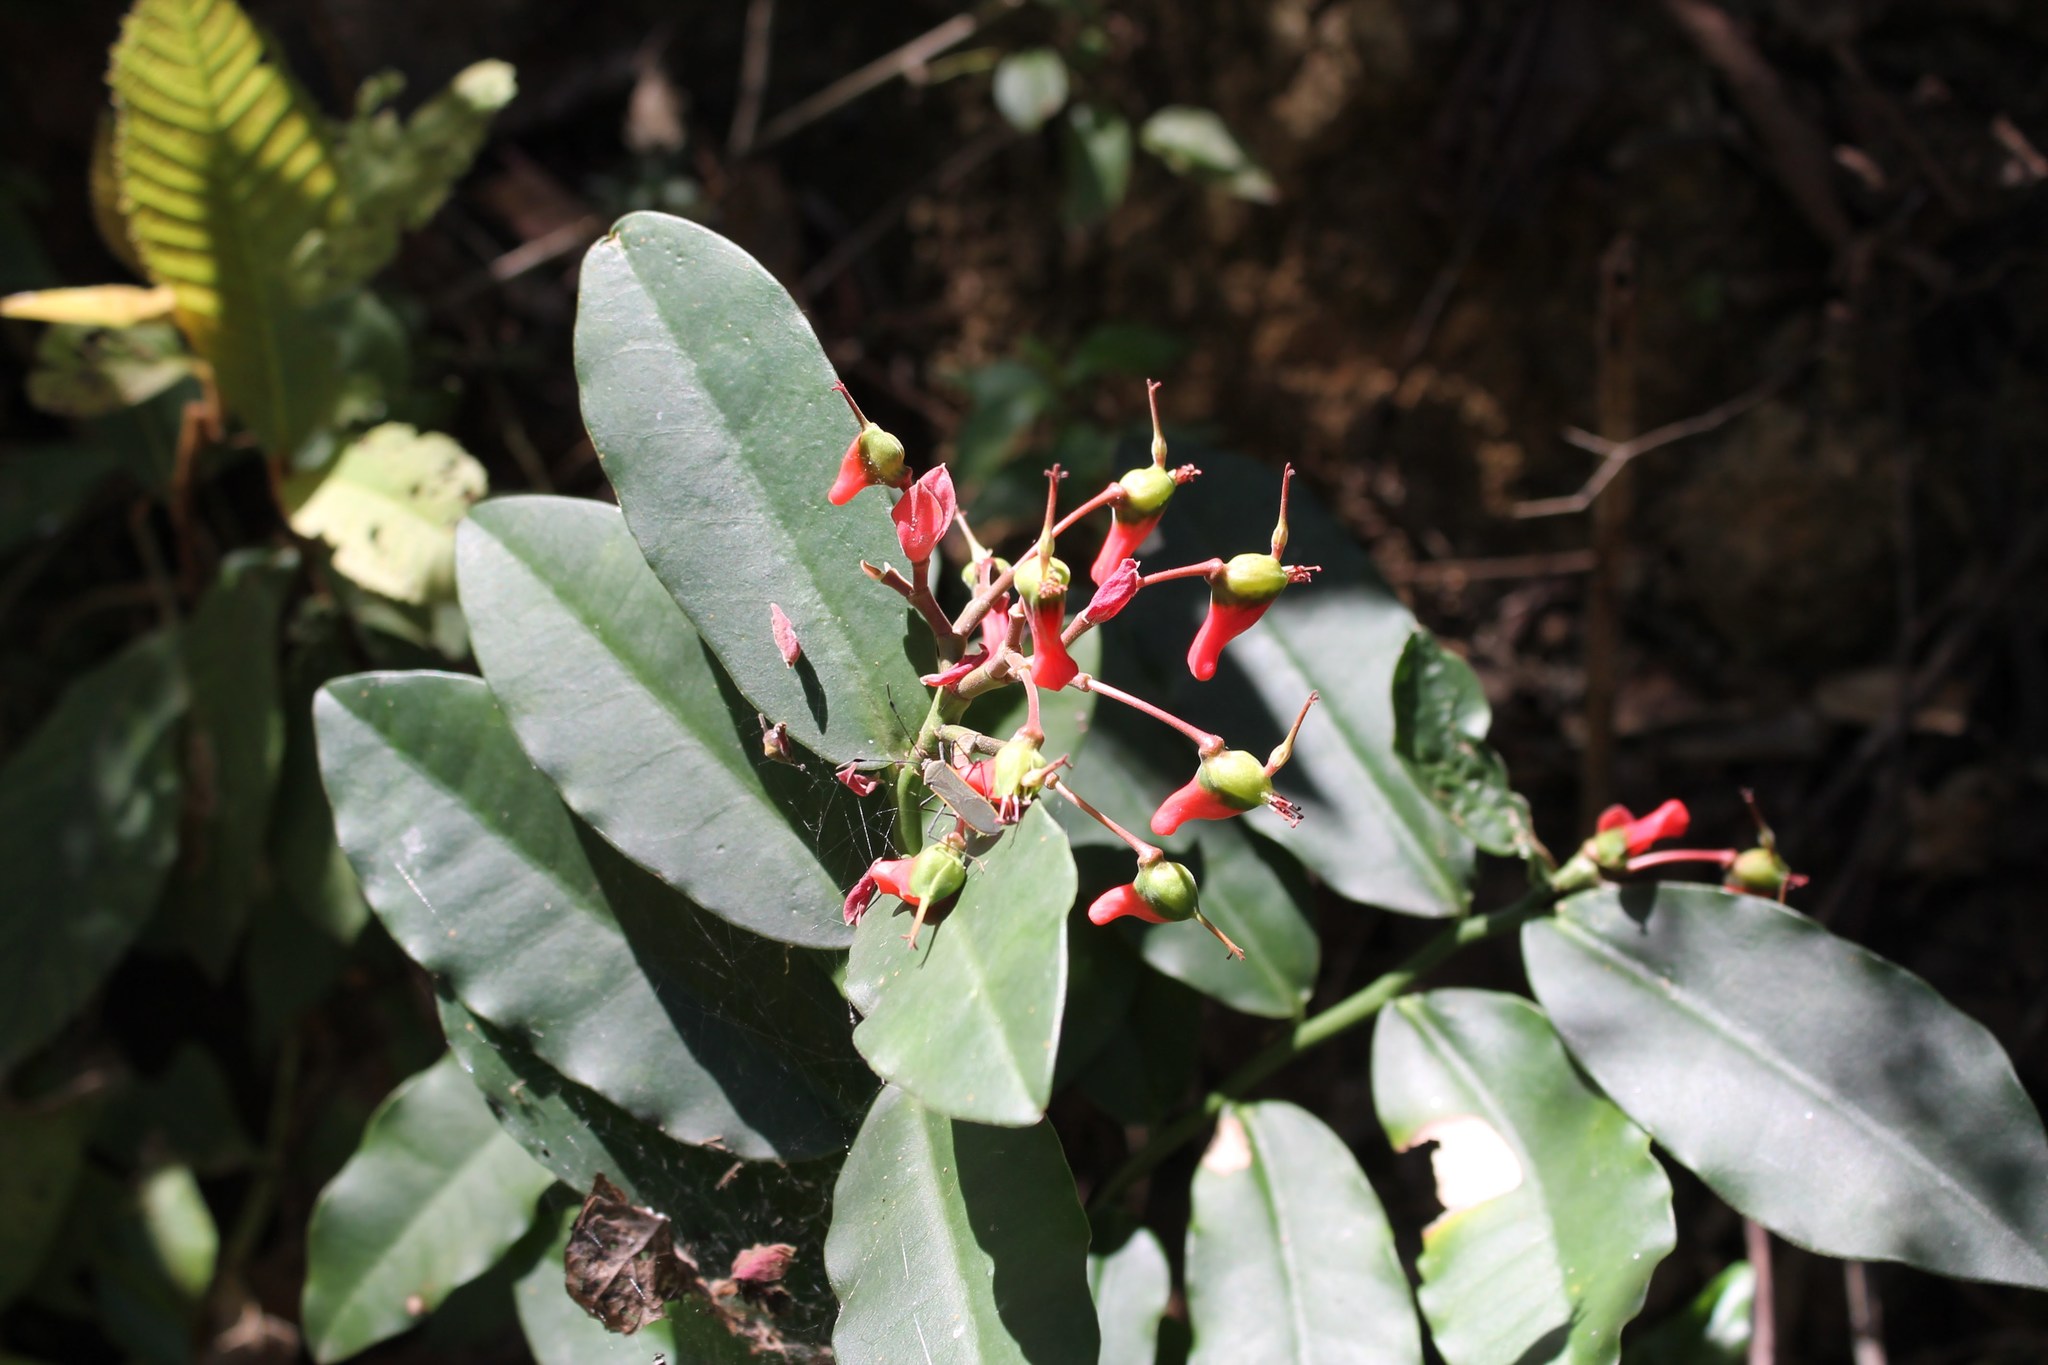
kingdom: Plantae
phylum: Tracheophyta
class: Magnoliopsida
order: Malpighiales
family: Euphorbiaceae
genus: Euphorbia
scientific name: Euphorbia peritropoides
